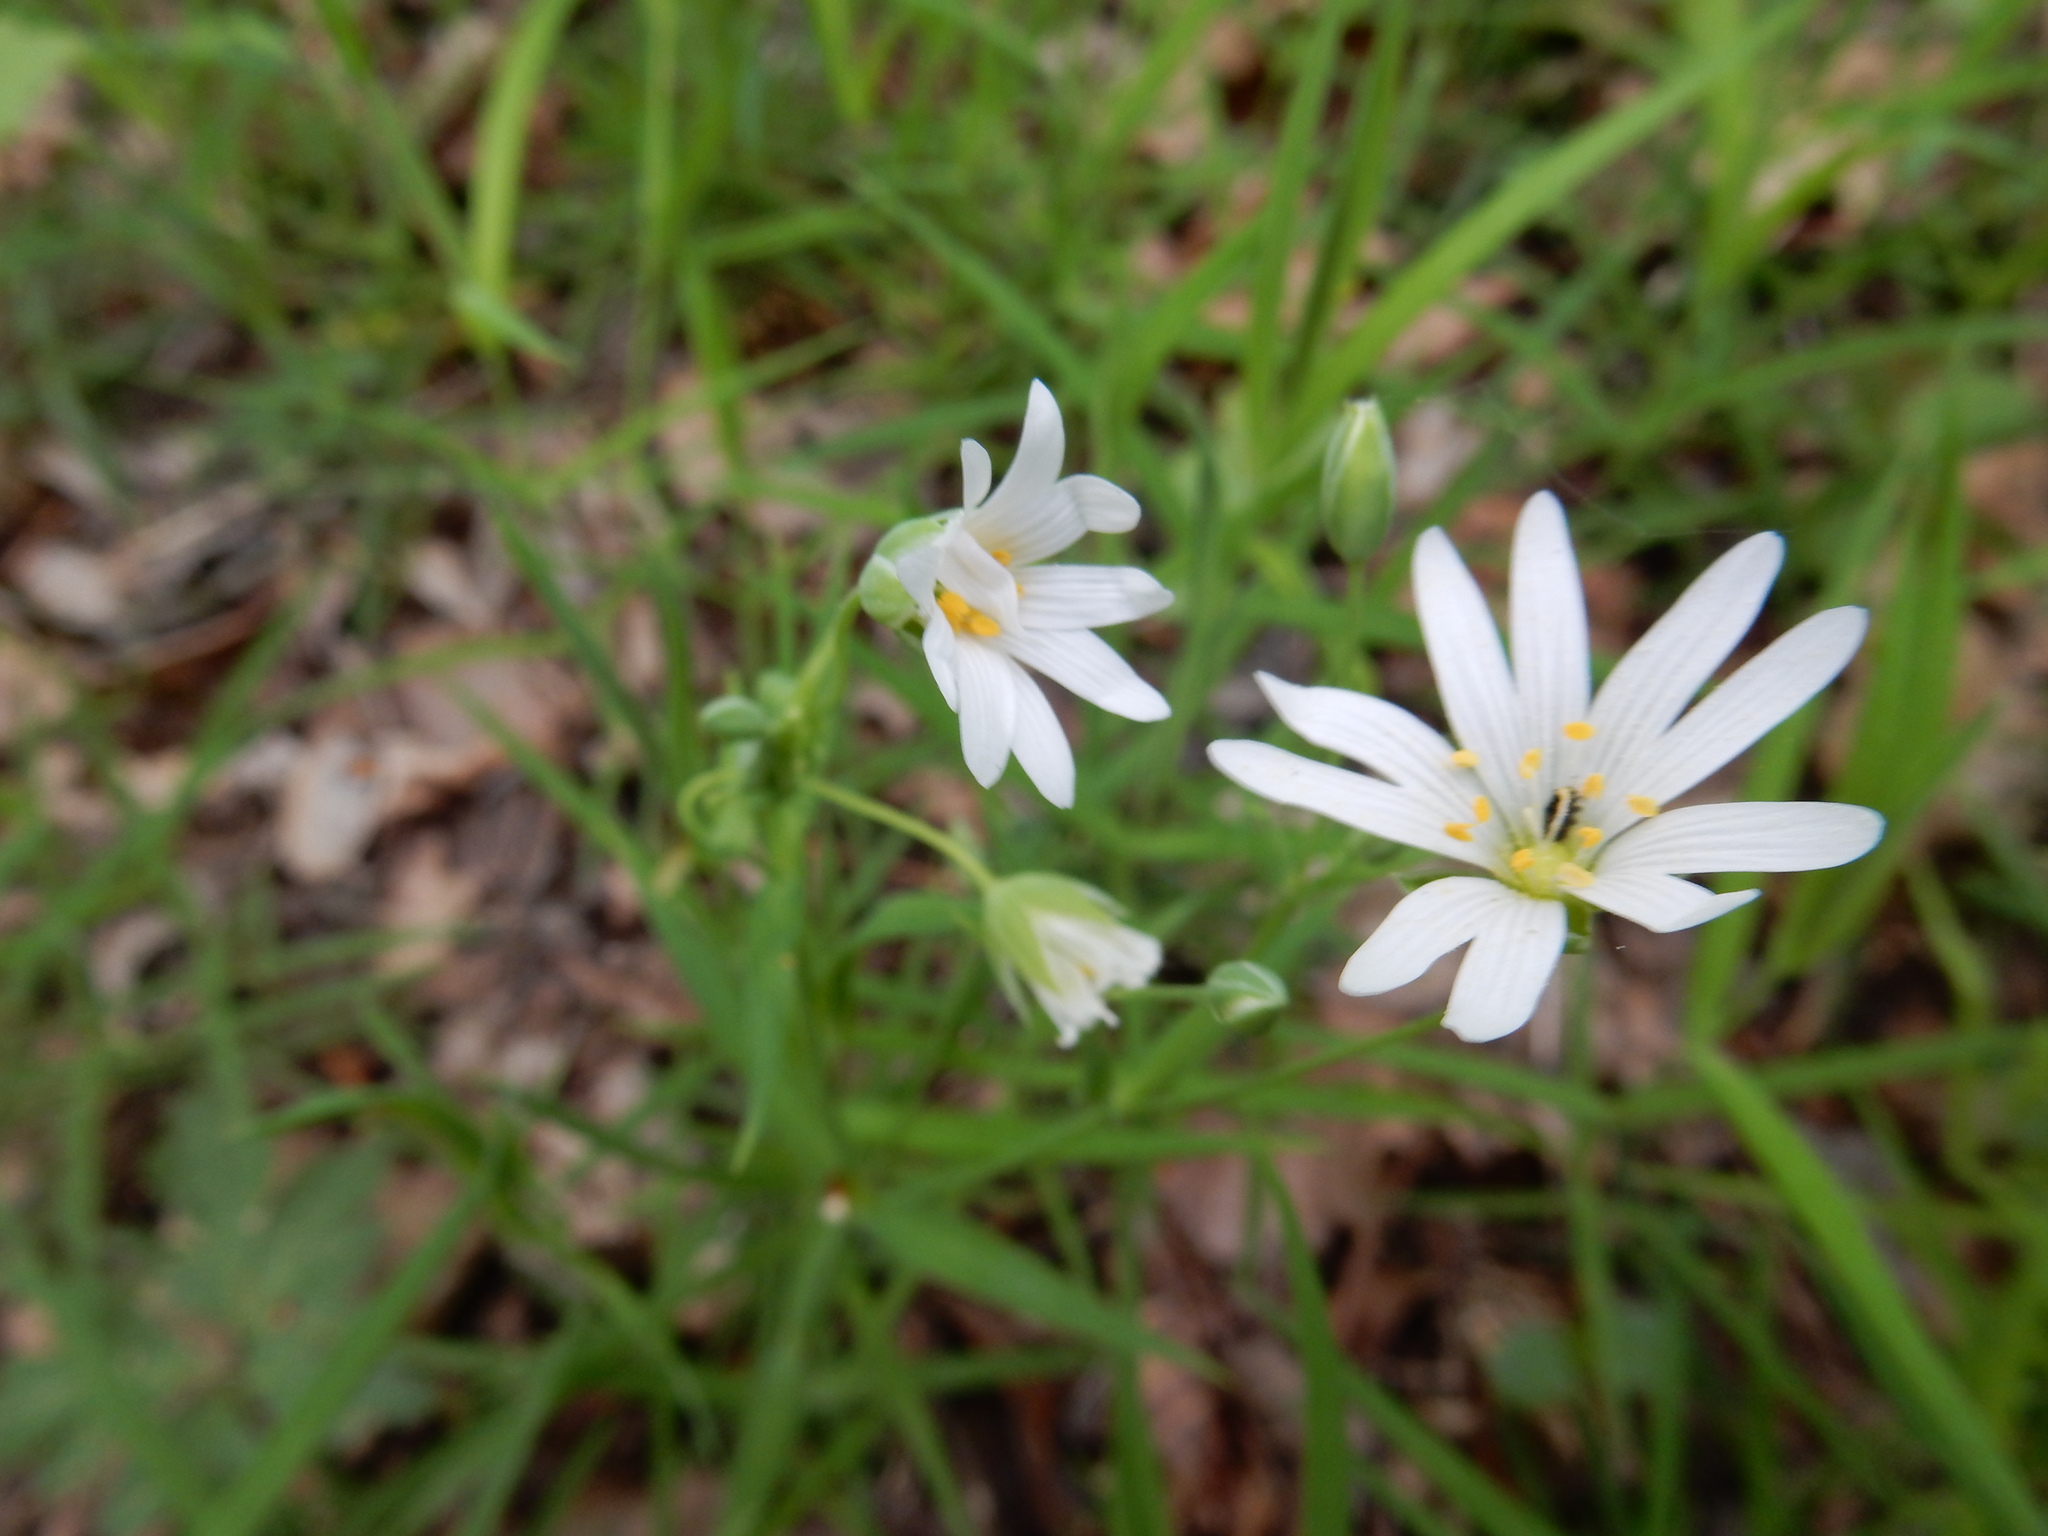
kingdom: Plantae
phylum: Tracheophyta
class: Magnoliopsida
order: Caryophyllales
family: Caryophyllaceae
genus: Rabelera
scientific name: Rabelera holostea
